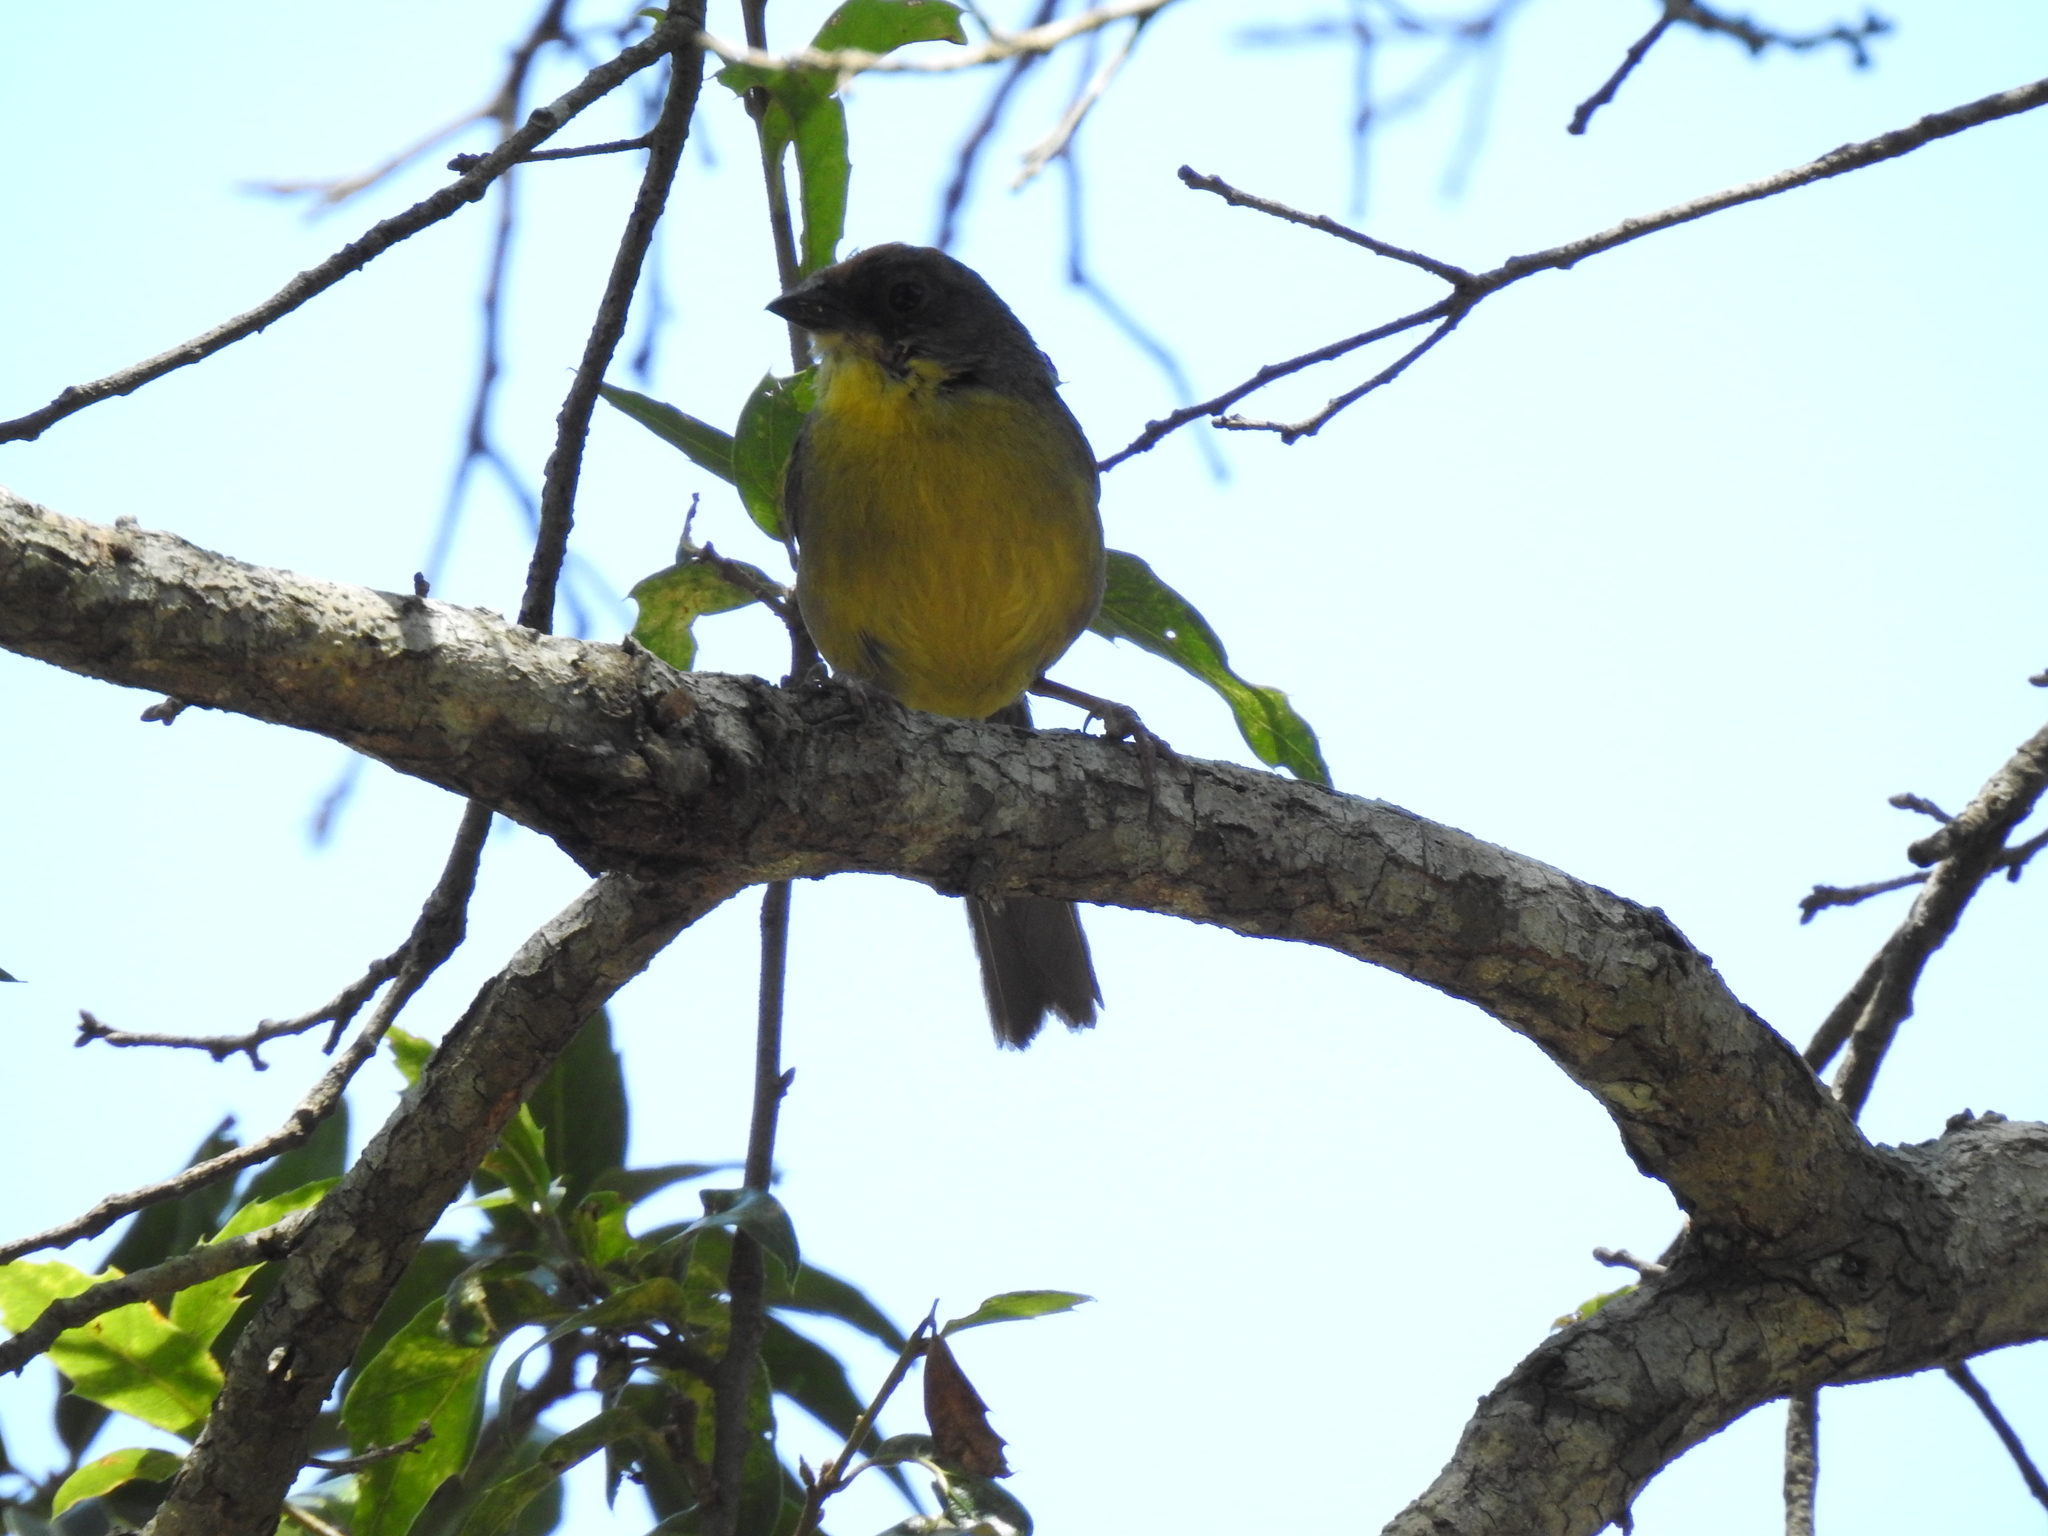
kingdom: Animalia
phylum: Chordata
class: Aves
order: Passeriformes
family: Passerellidae
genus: Atlapetes
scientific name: Atlapetes pileatus
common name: Rufous-capped brush-finch
